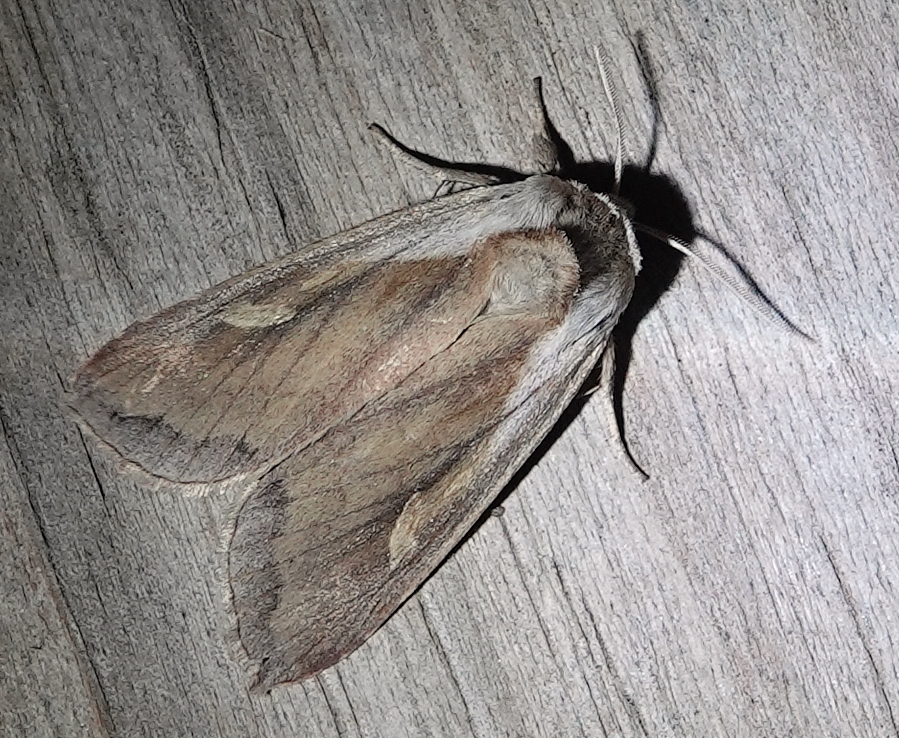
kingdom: Animalia
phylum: Arthropoda
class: Insecta
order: Lepidoptera
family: Noctuidae
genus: Bellura
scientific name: Bellura obliqua
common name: Cattail borer moth
